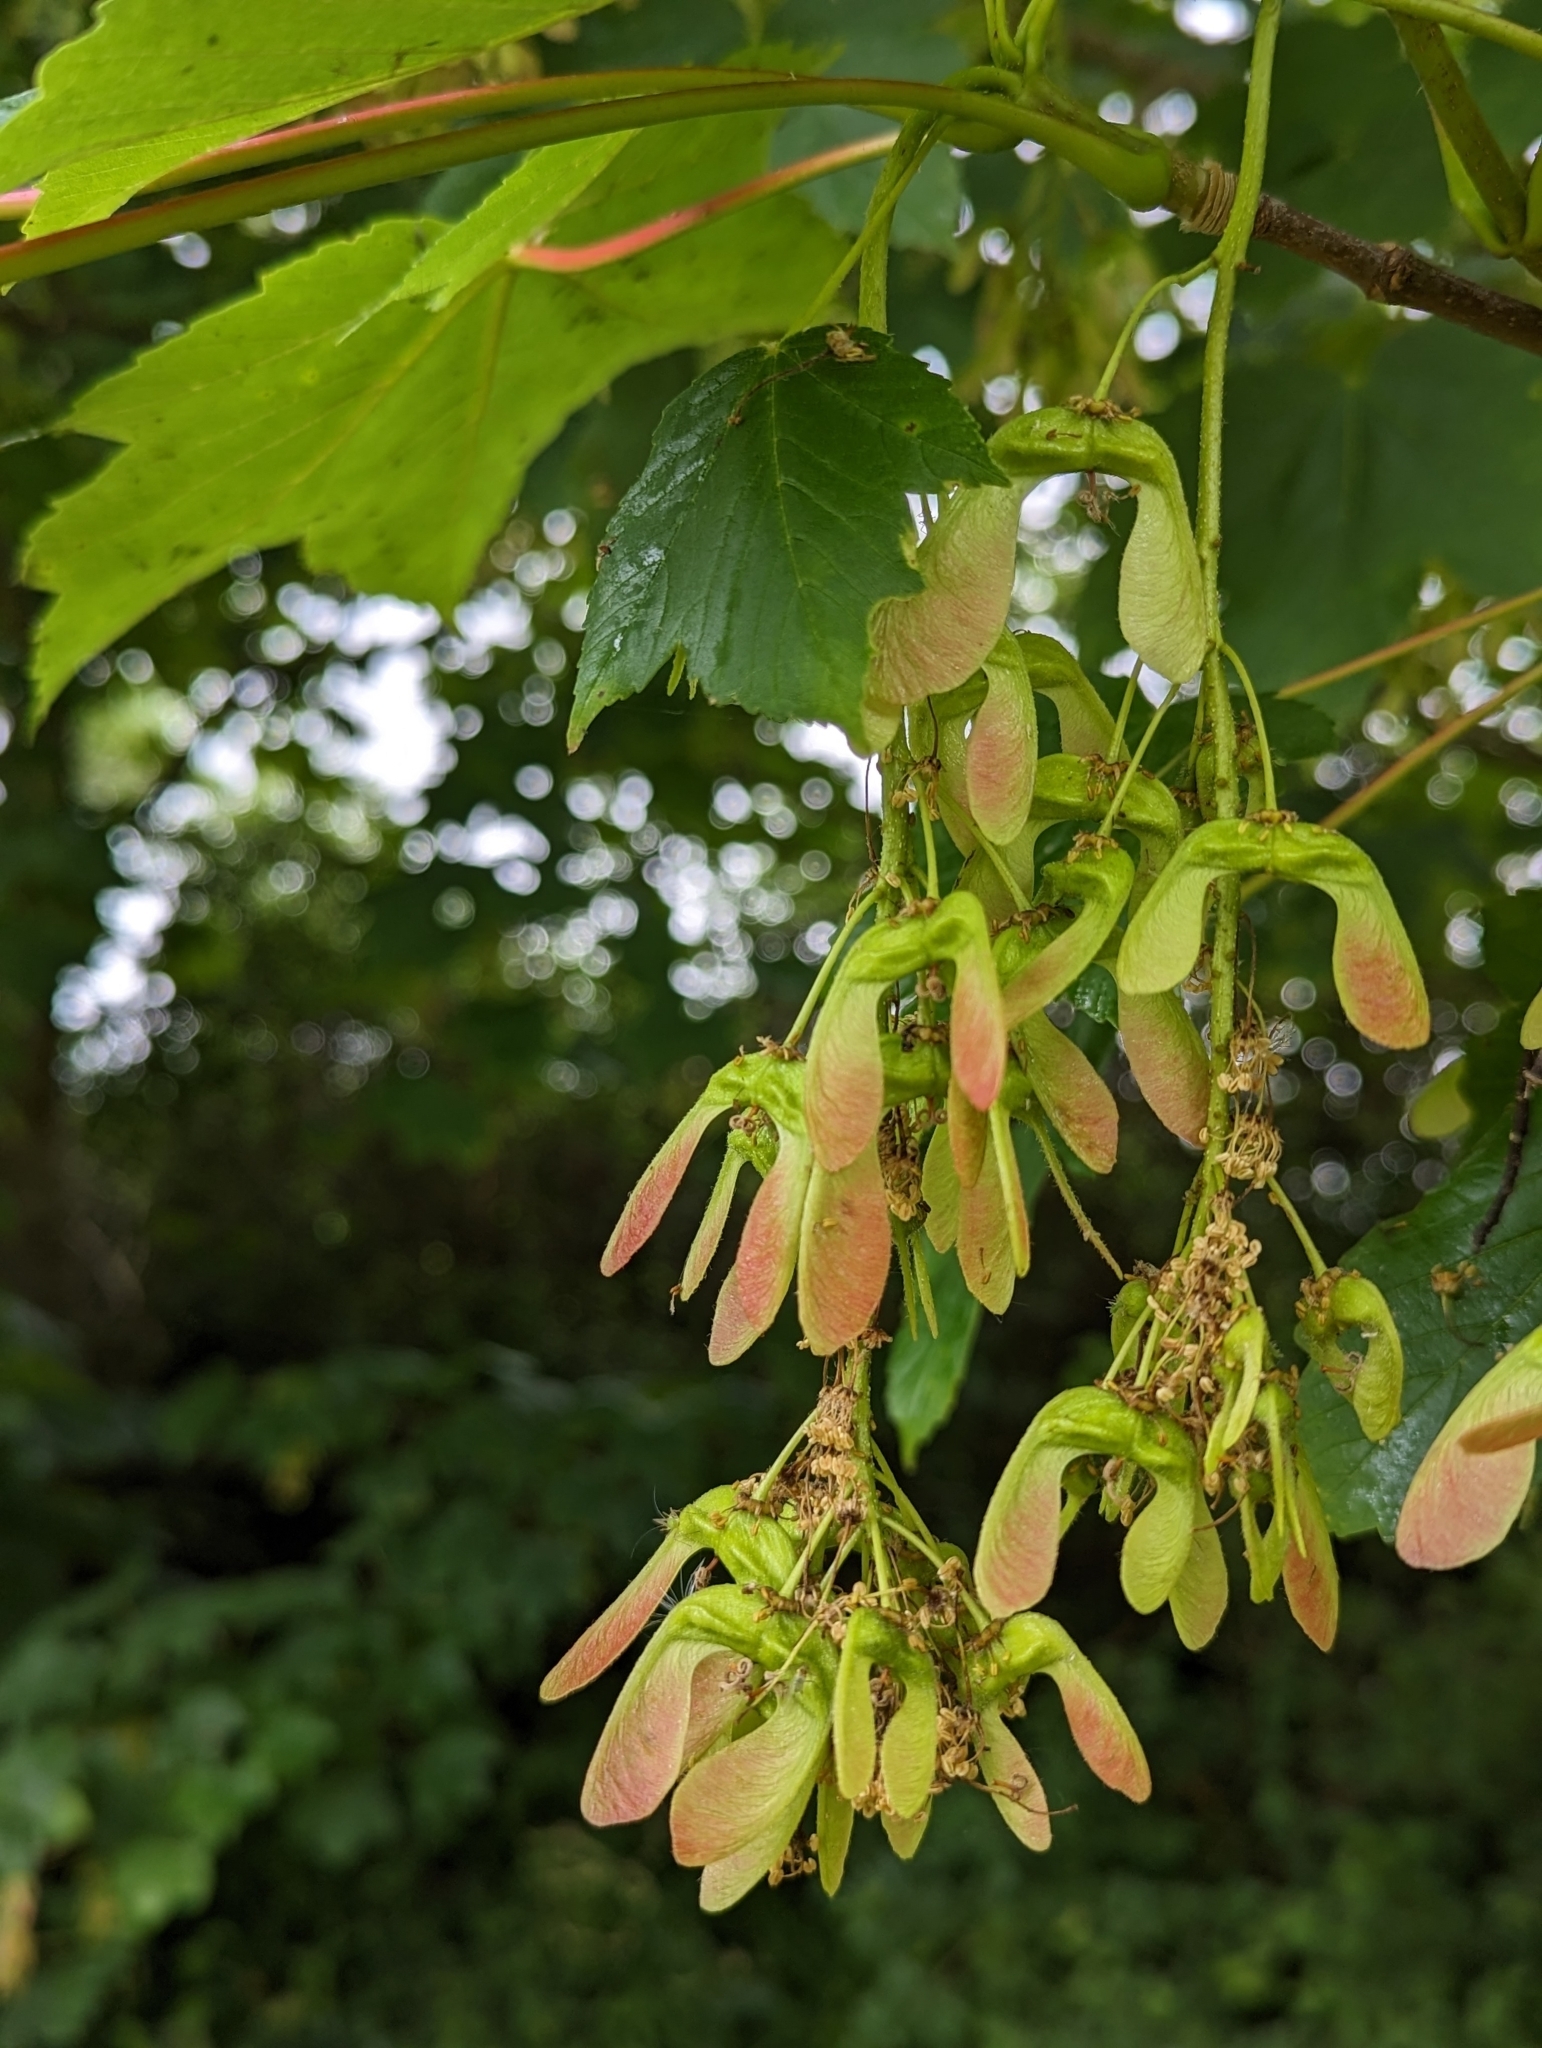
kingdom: Plantae
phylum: Tracheophyta
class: Magnoliopsida
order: Sapindales
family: Sapindaceae
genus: Acer
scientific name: Acer pseudoplatanus
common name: Sycamore
